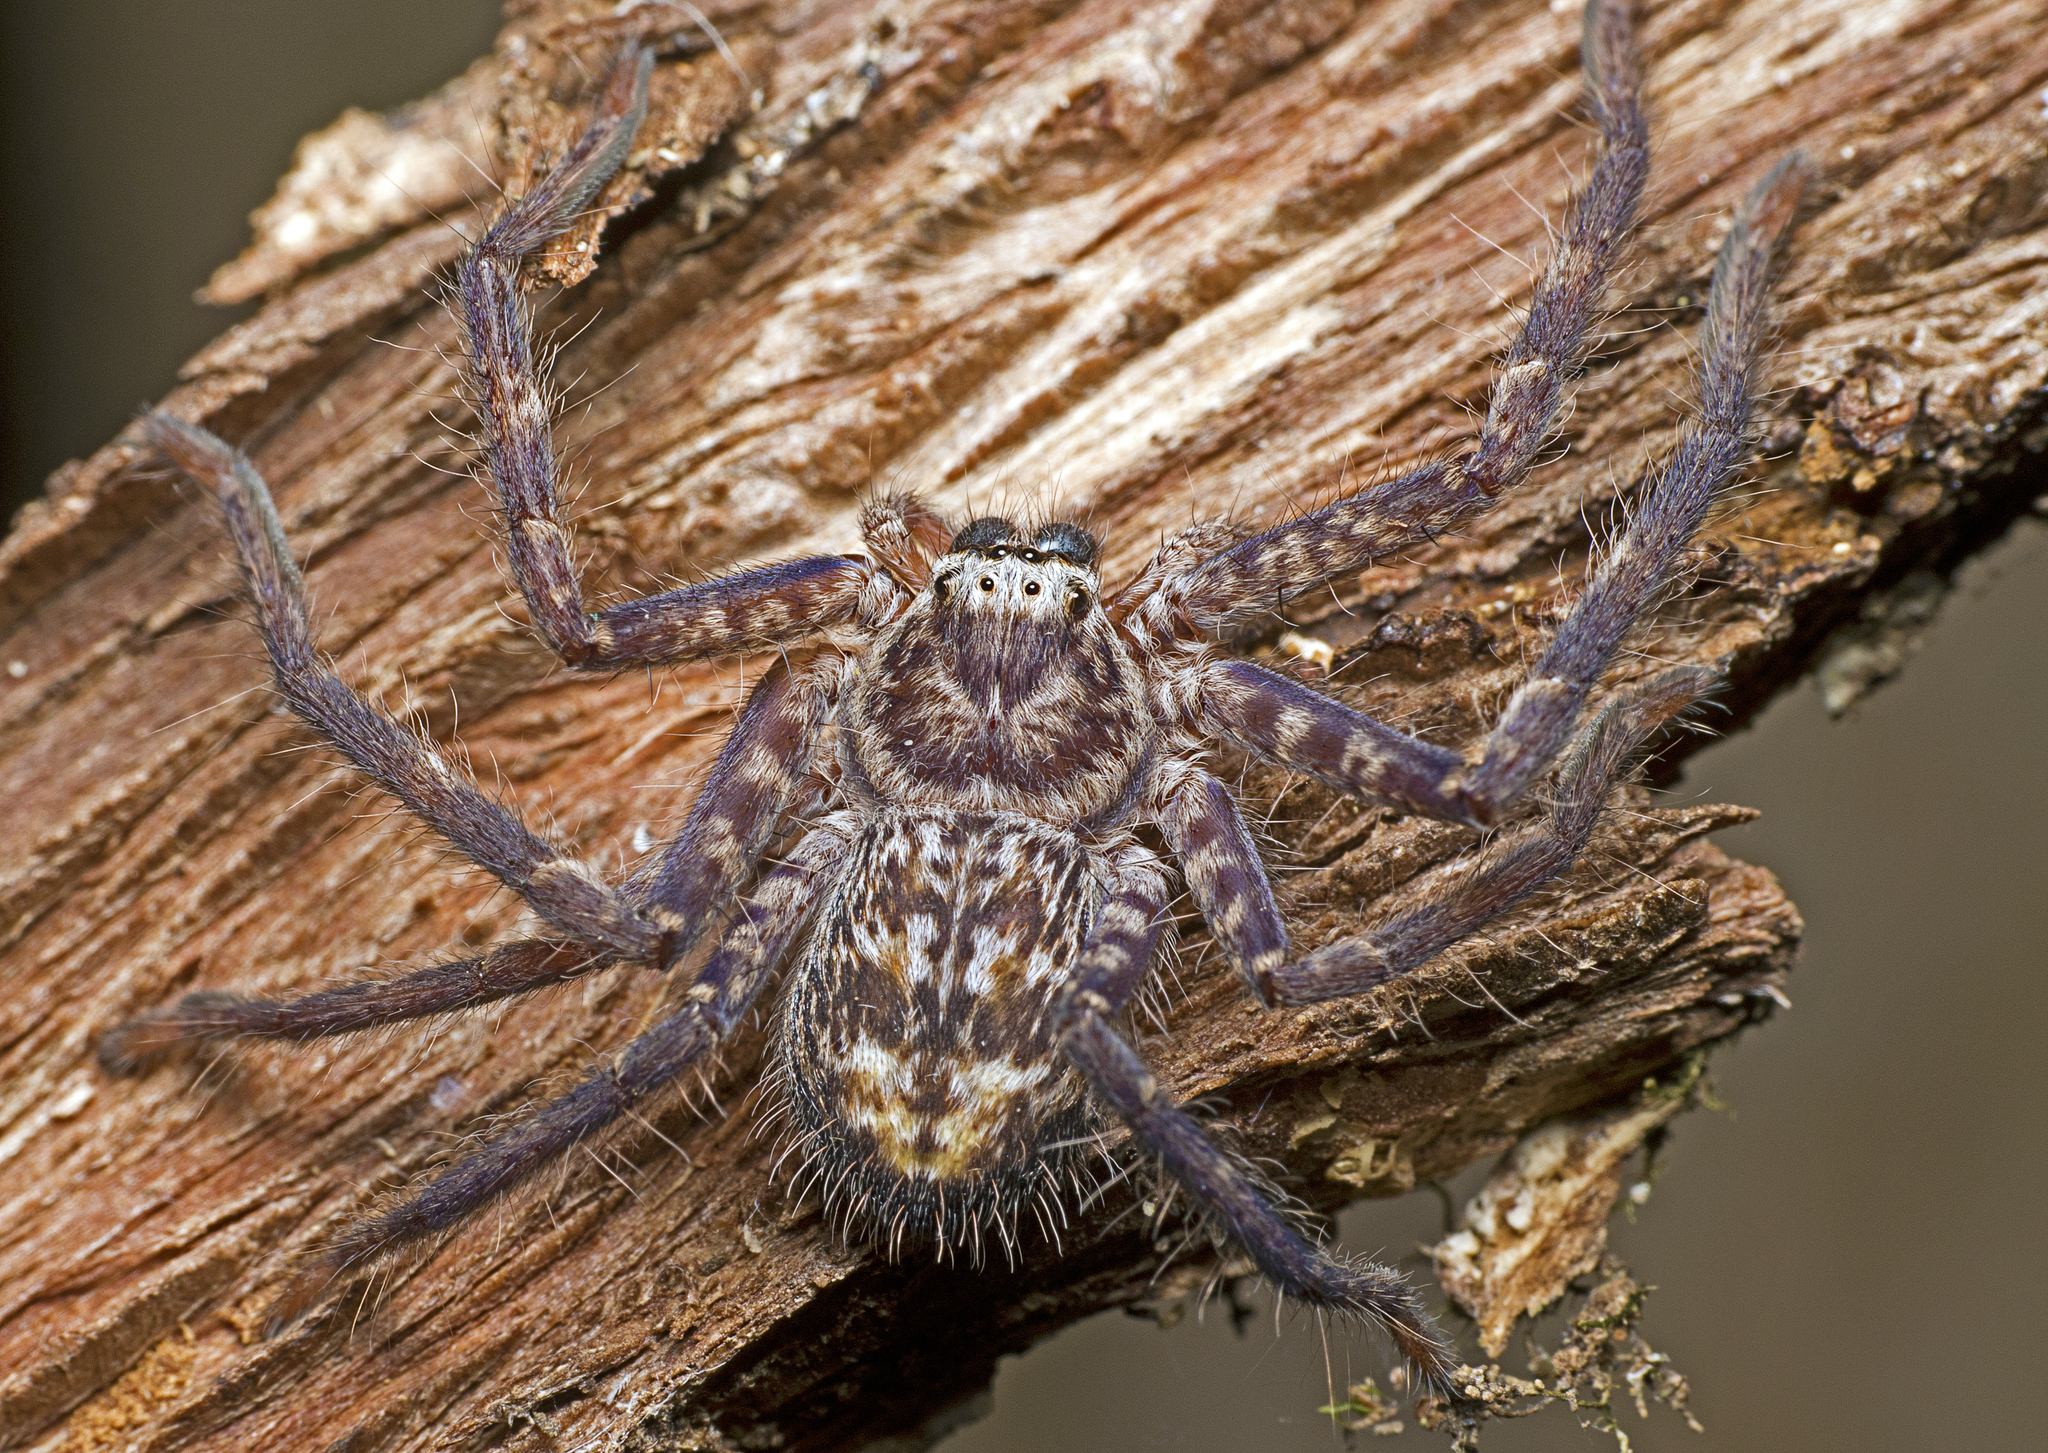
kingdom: Animalia
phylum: Arthropoda
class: Arachnida
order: Araneae
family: Sparassidae
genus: Holconia
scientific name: Holconia insignis
